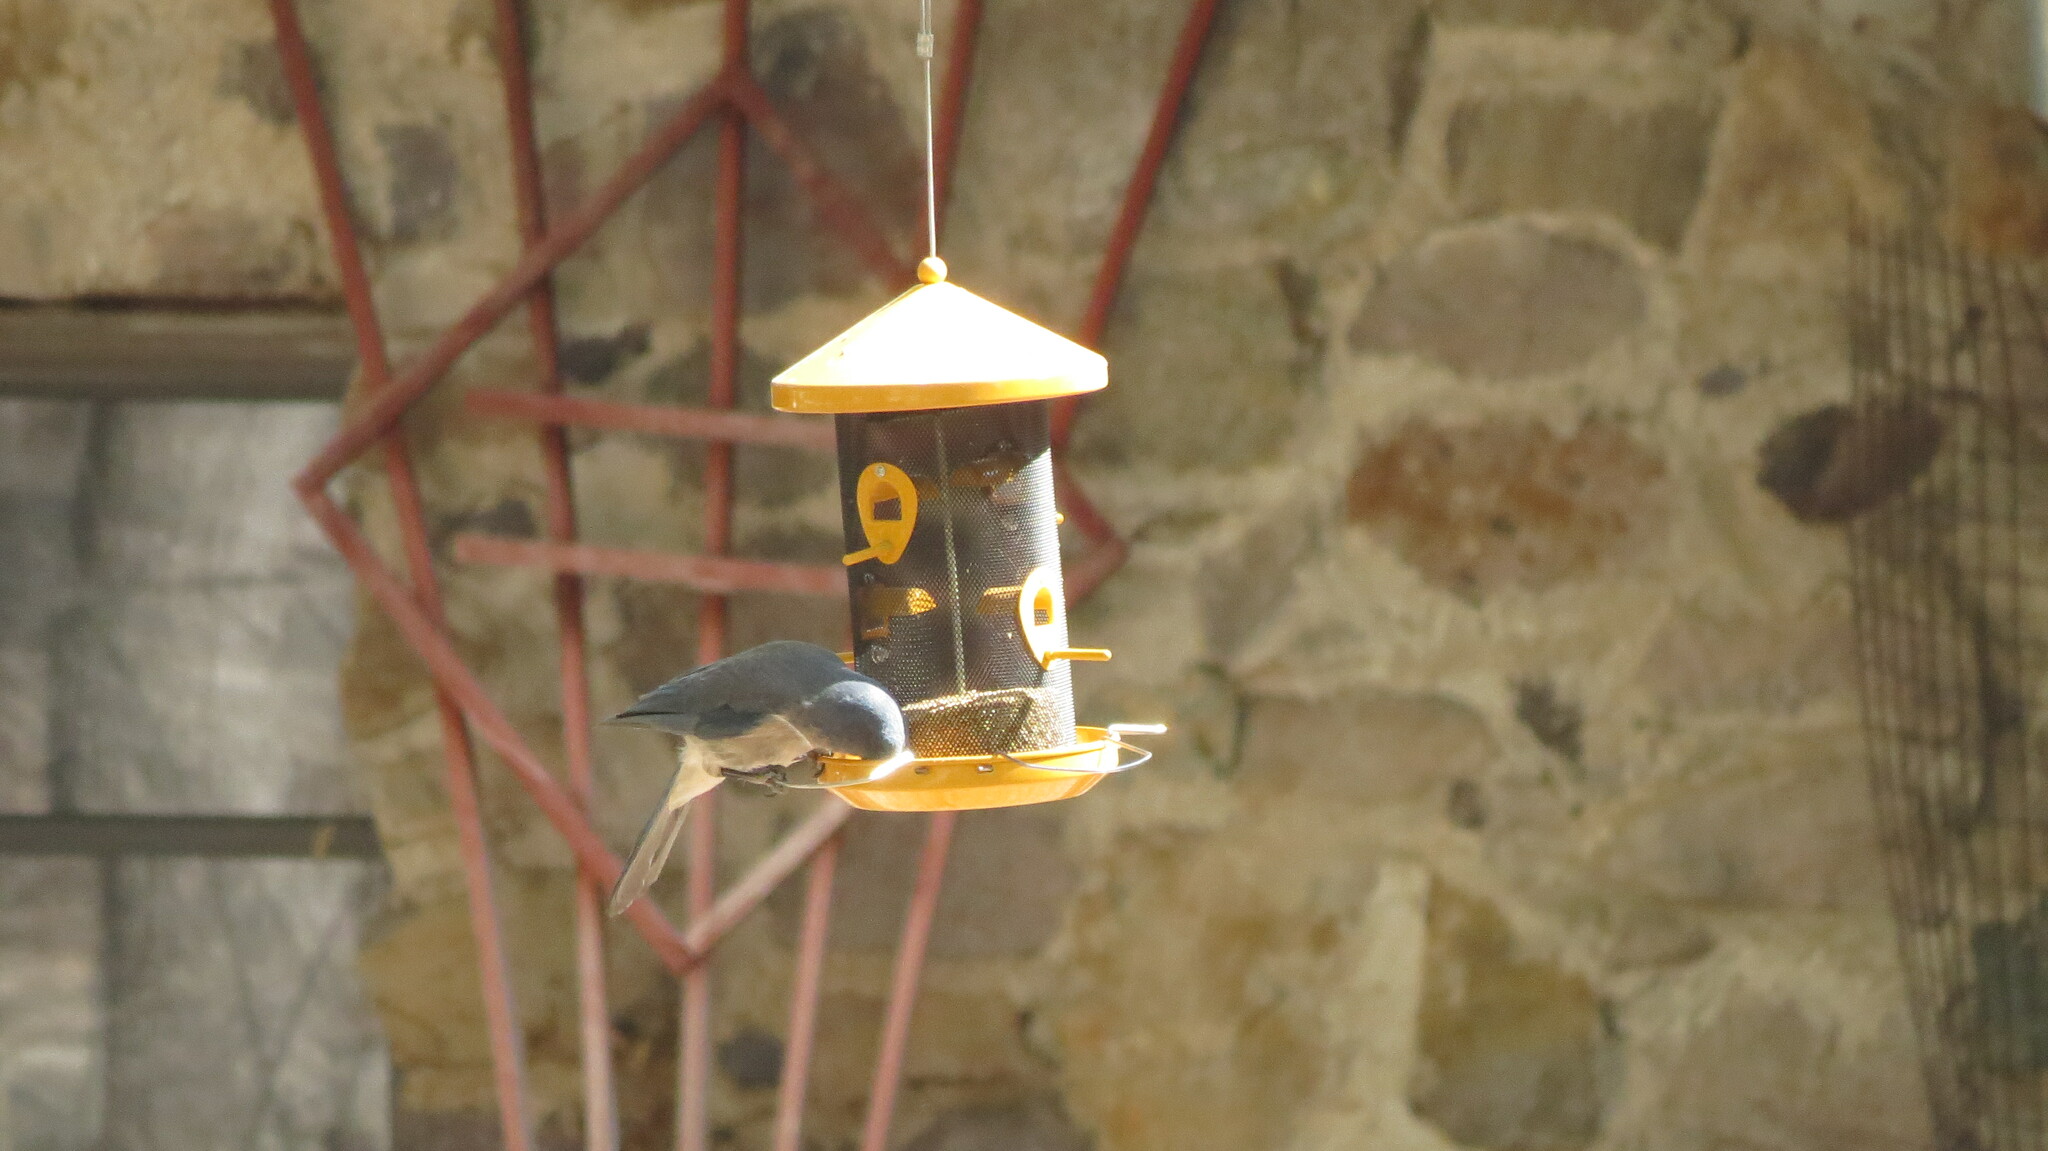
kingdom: Animalia
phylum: Chordata
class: Aves
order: Passeriformes
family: Corvidae
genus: Aphelocoma
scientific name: Aphelocoma wollweberi
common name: Mexican jay
